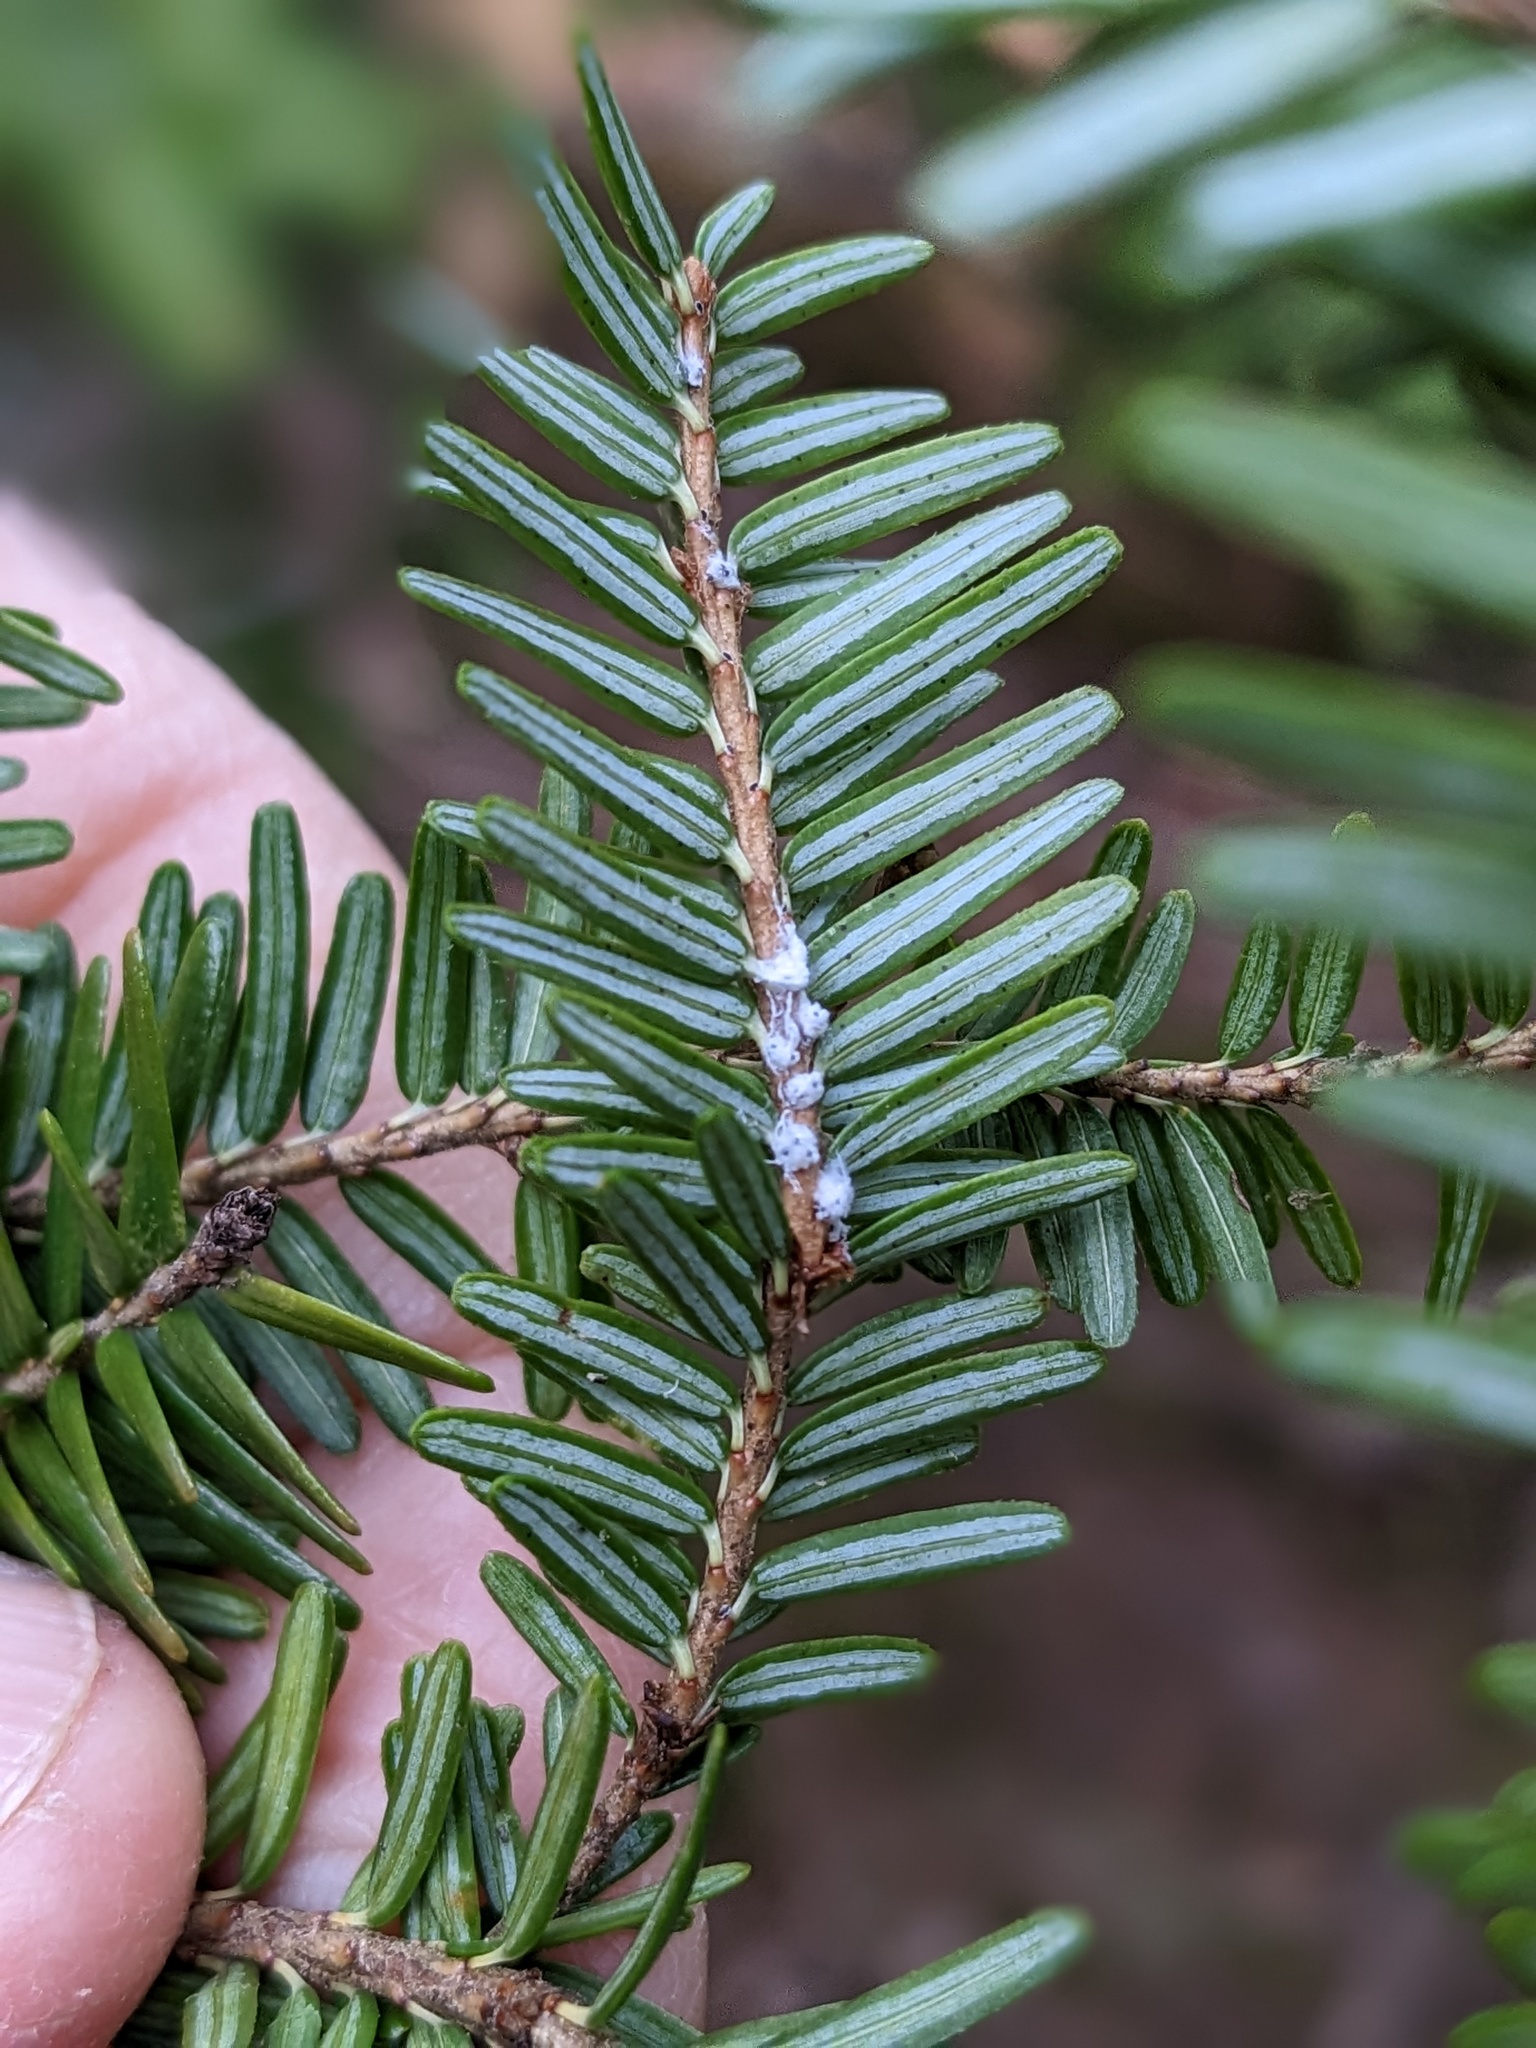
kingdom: Animalia
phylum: Arthropoda
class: Insecta
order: Hemiptera
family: Adelgidae
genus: Adelges
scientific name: Adelges tsugae
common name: Hemlock woolly adelgid
